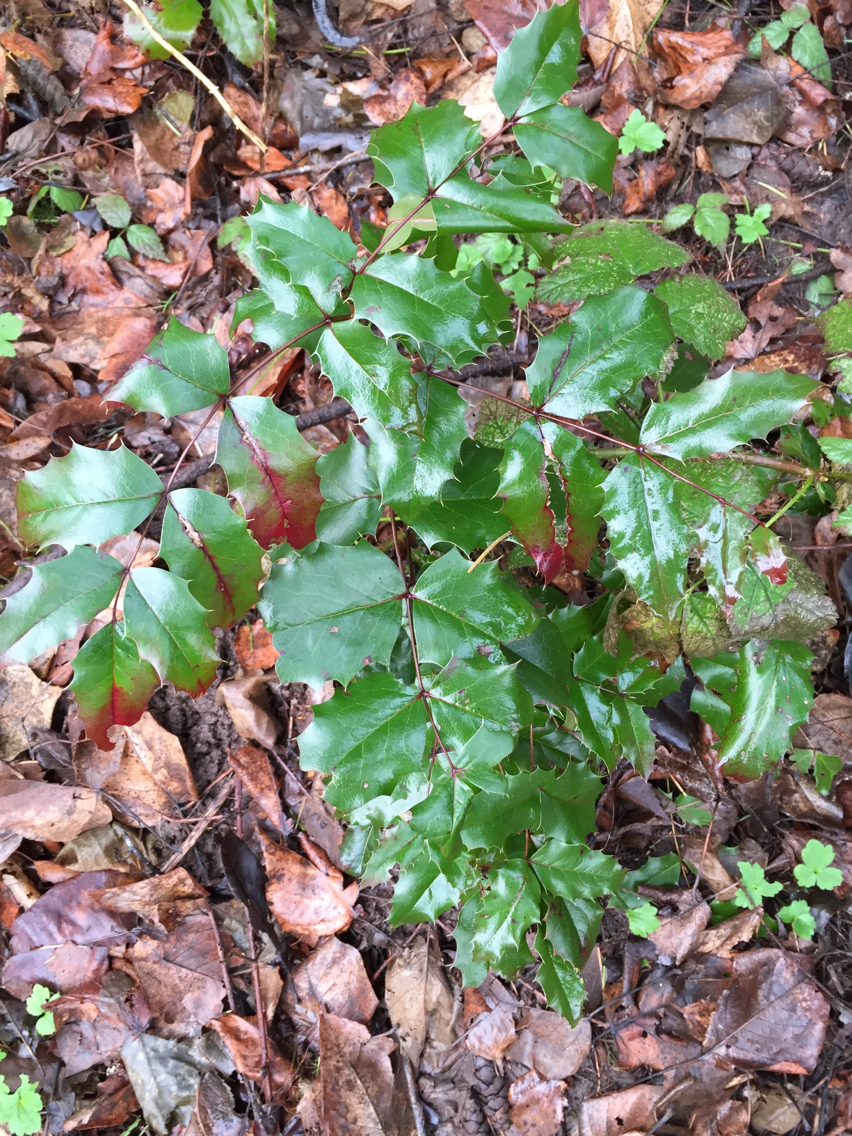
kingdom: Plantae
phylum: Tracheophyta
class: Magnoliopsida
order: Ranunculales
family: Berberidaceae
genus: Mahonia
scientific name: Mahonia aquifolium
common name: Oregon-grape
